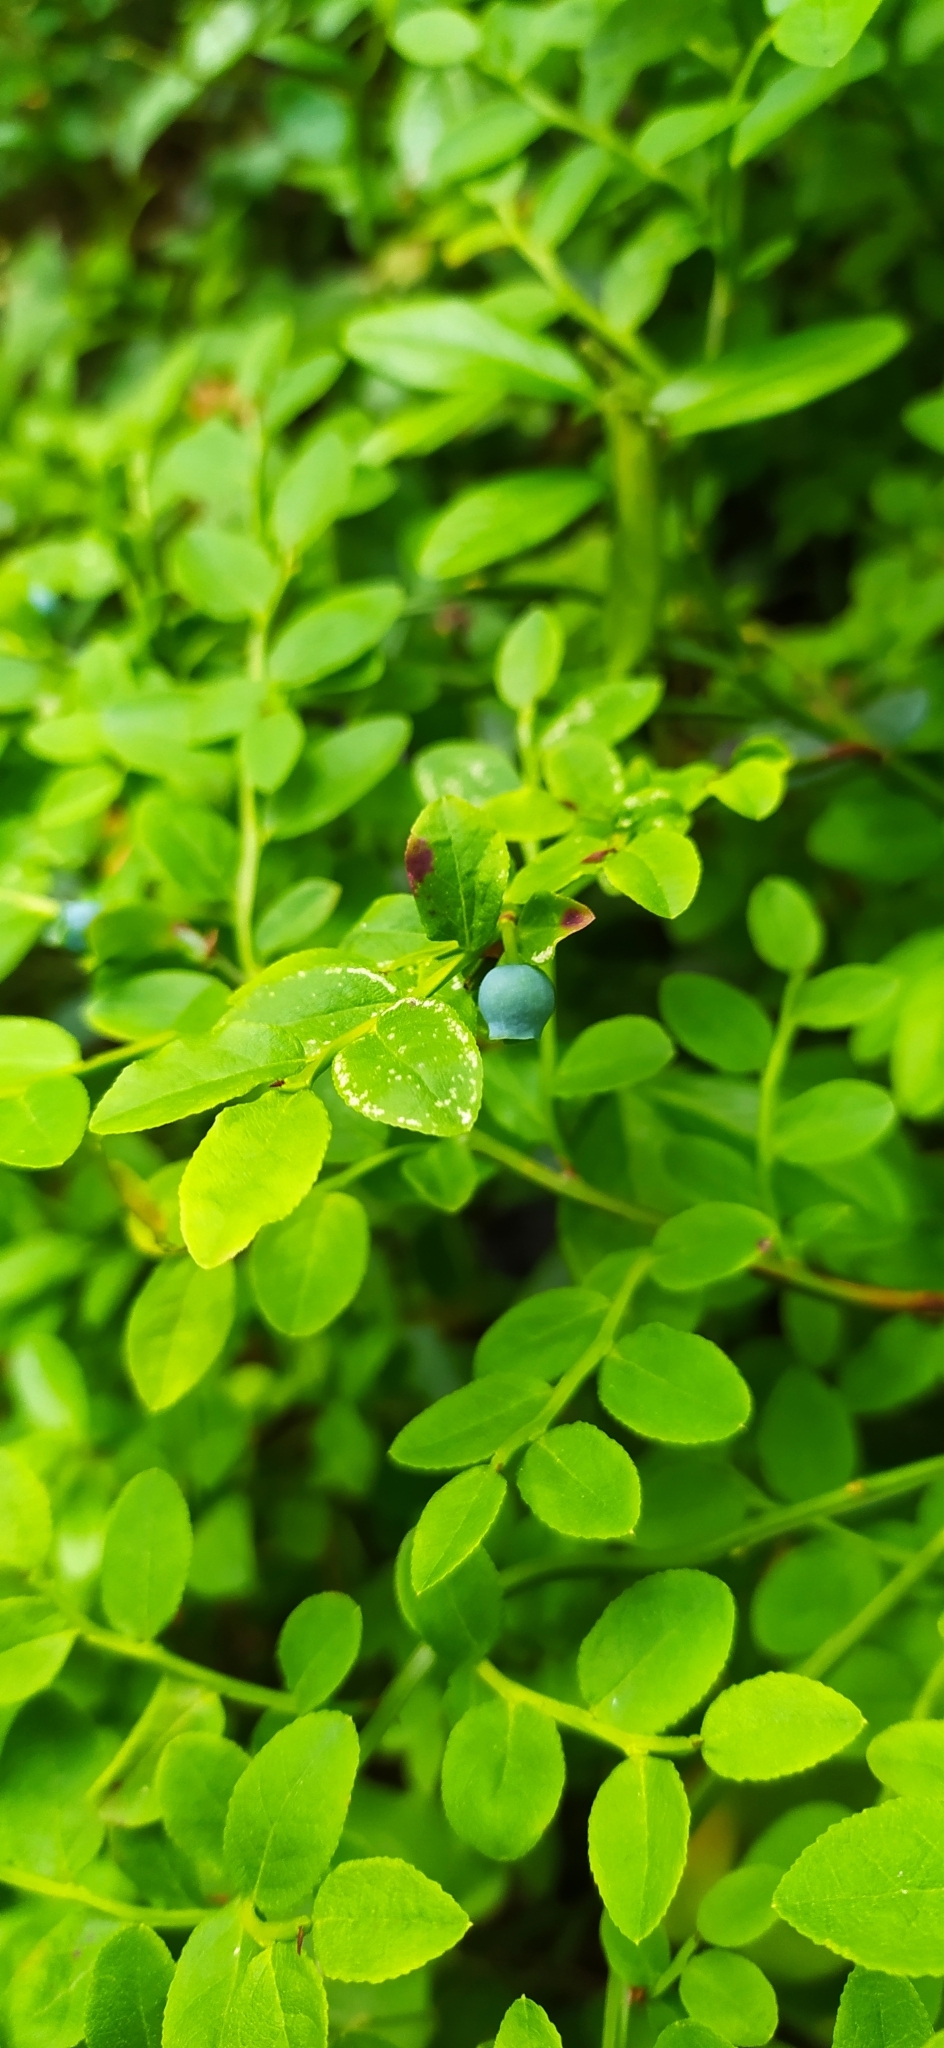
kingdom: Plantae
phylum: Tracheophyta
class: Magnoliopsida
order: Ericales
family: Ericaceae
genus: Vaccinium
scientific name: Vaccinium myrtillus
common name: Bilberry
